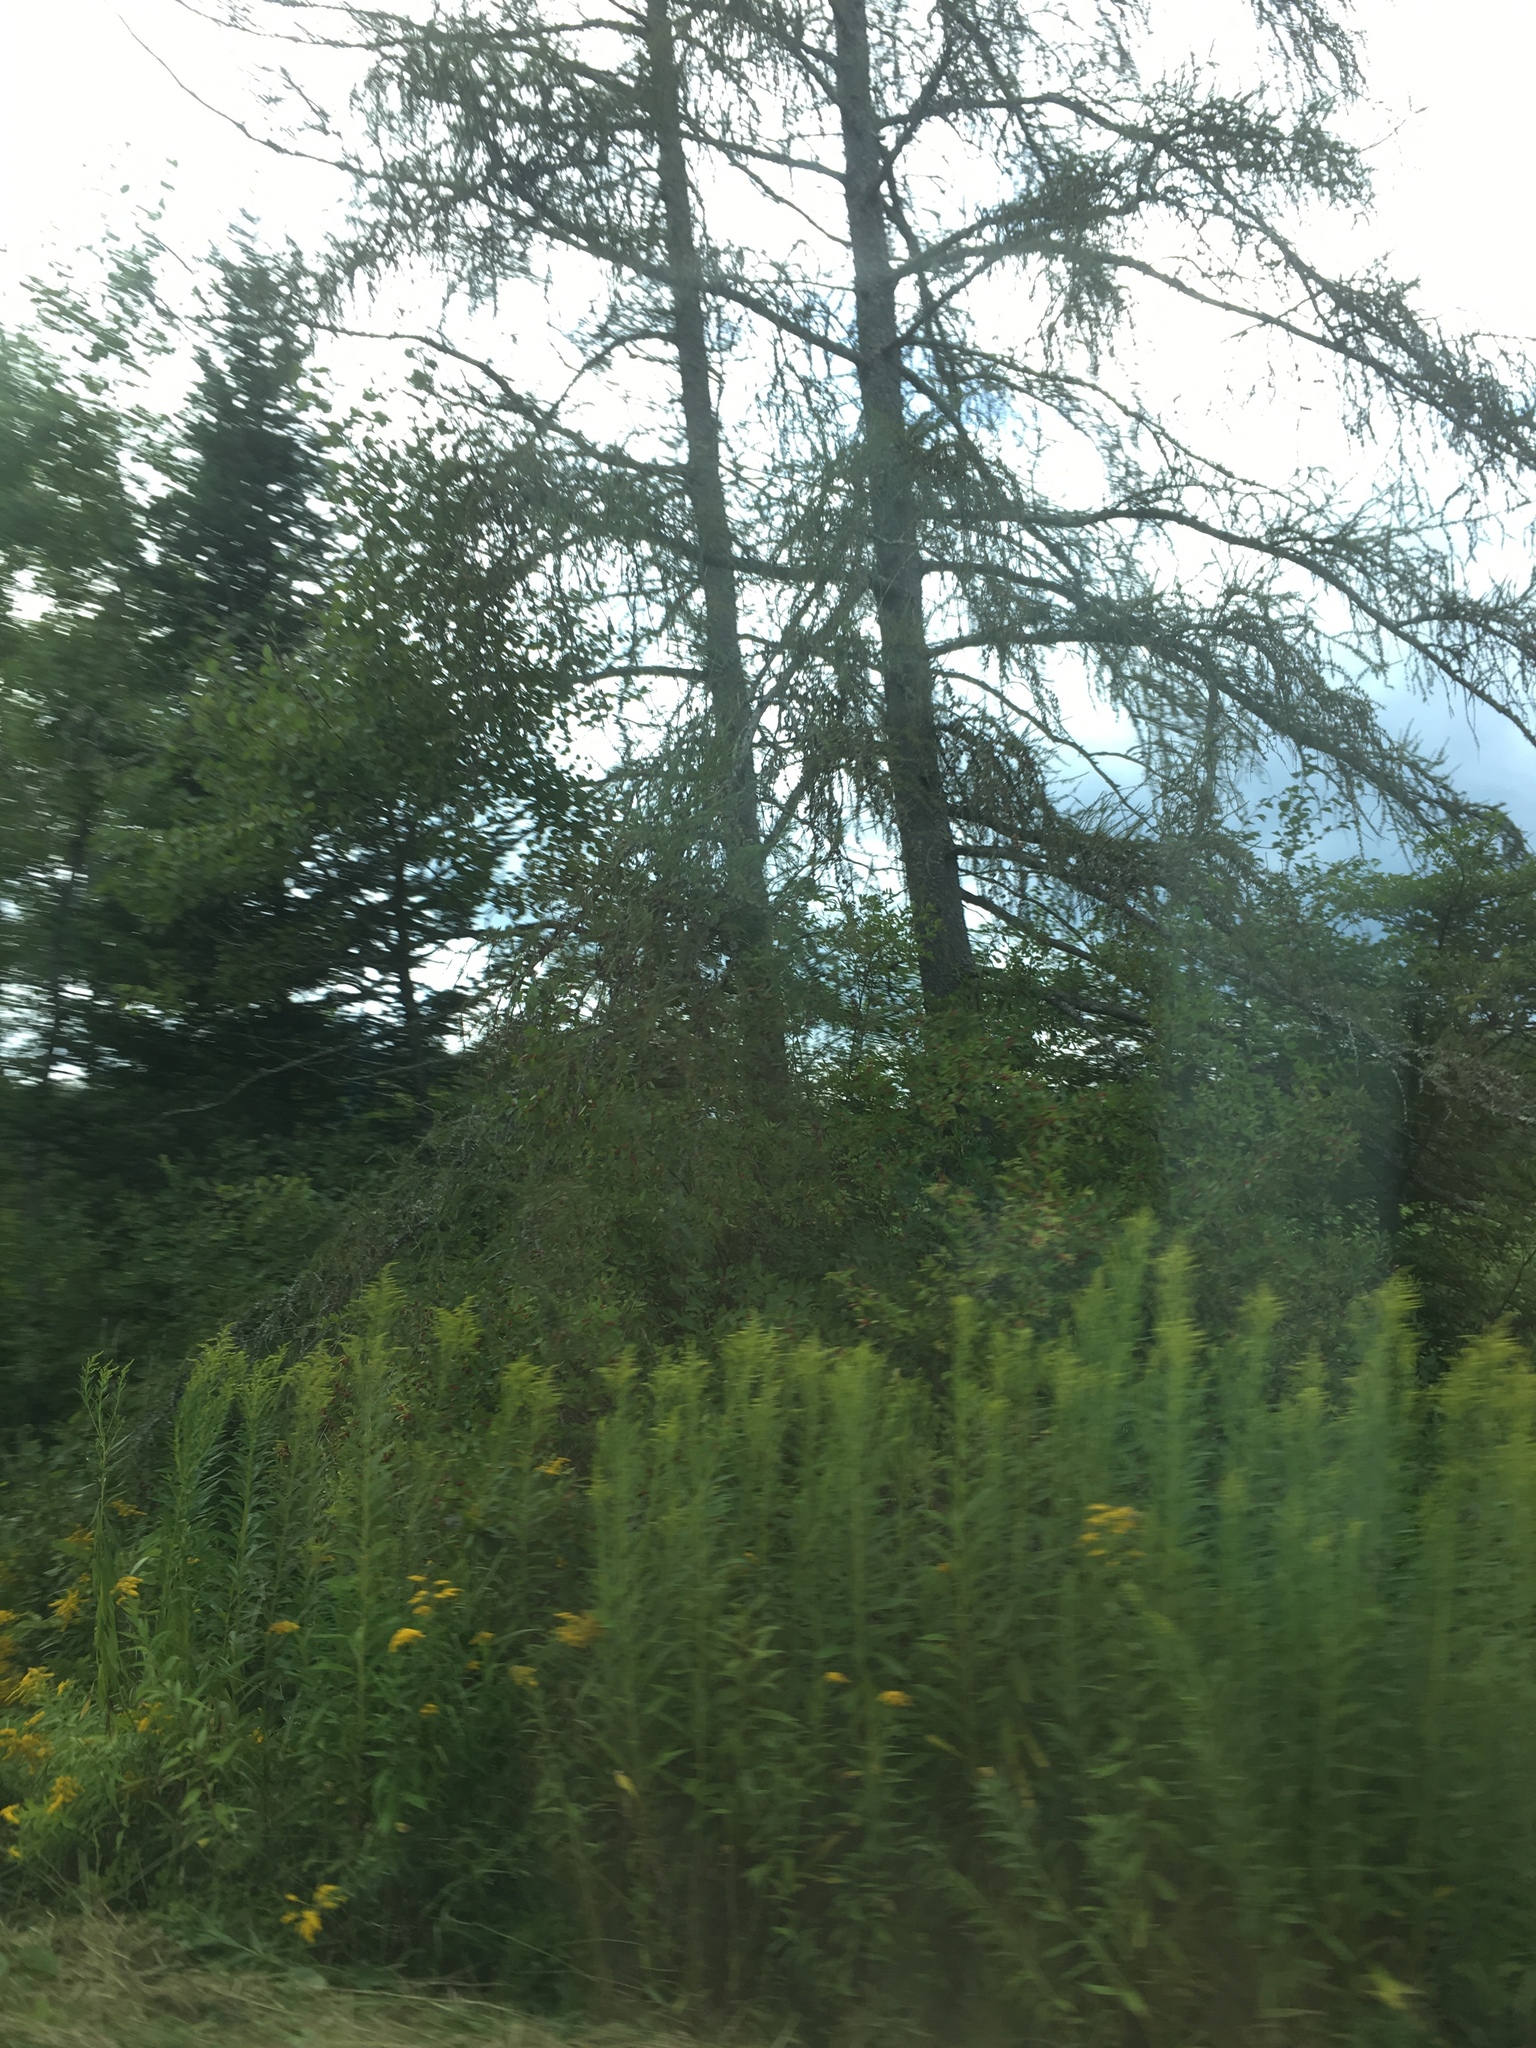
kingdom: Plantae
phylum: Tracheophyta
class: Pinopsida
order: Pinales
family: Pinaceae
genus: Larix
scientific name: Larix laricina
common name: American larch
